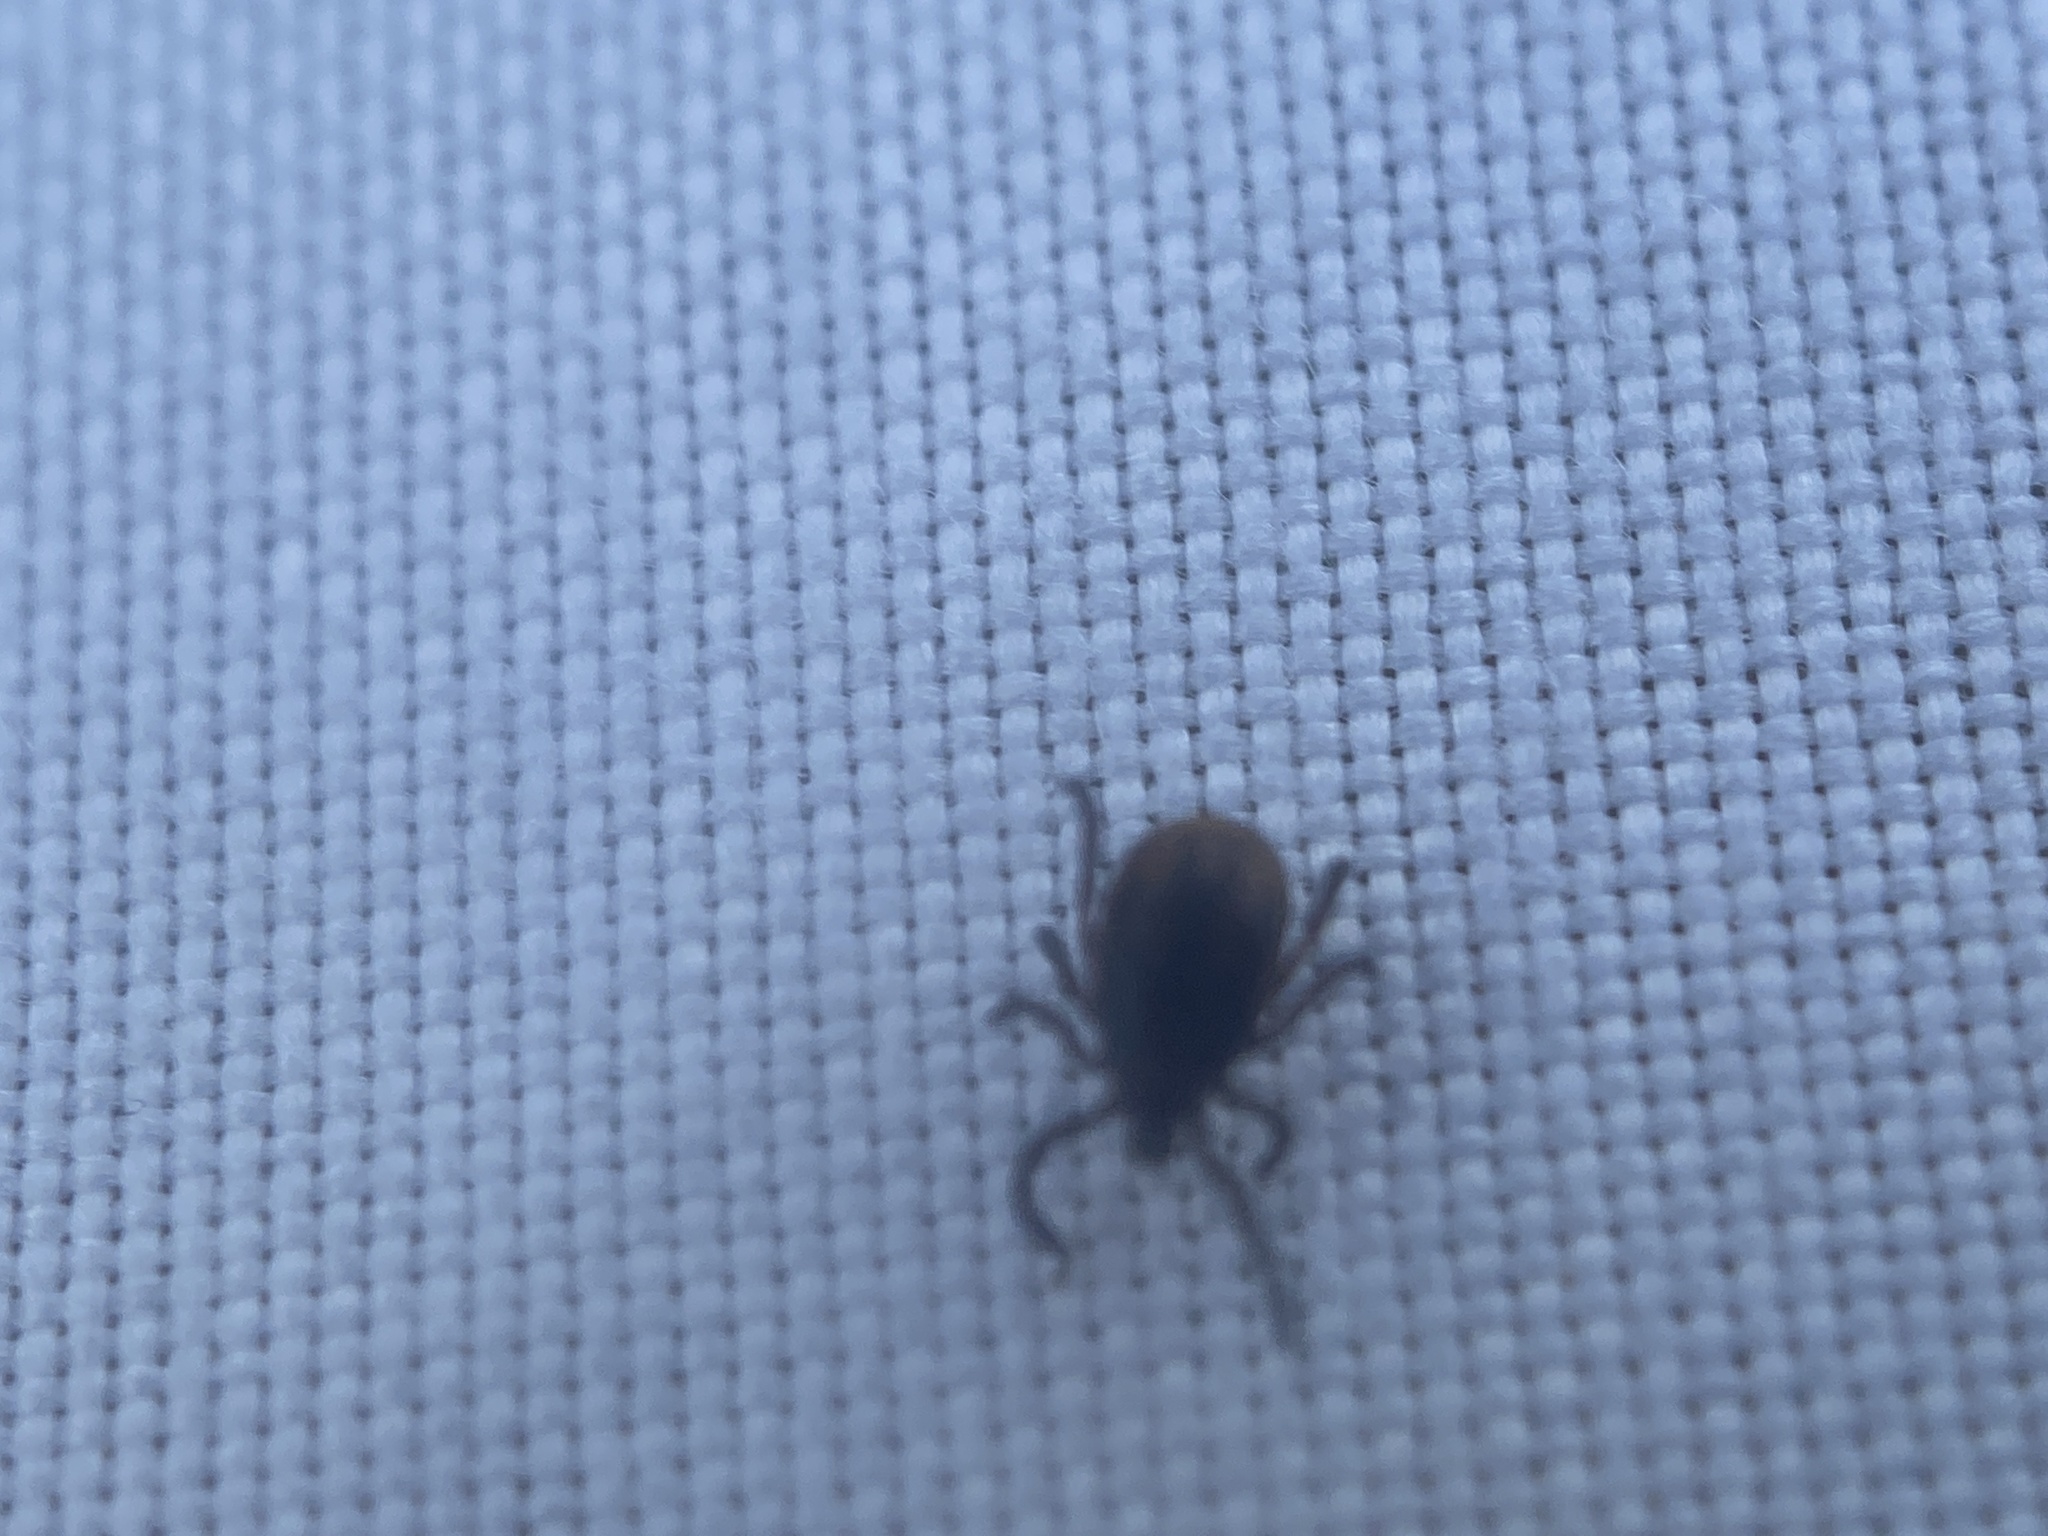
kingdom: Animalia
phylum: Arthropoda
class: Arachnida
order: Ixodida
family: Ixodidae
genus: Ixodes
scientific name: Ixodes scapularis
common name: Black legged tick
